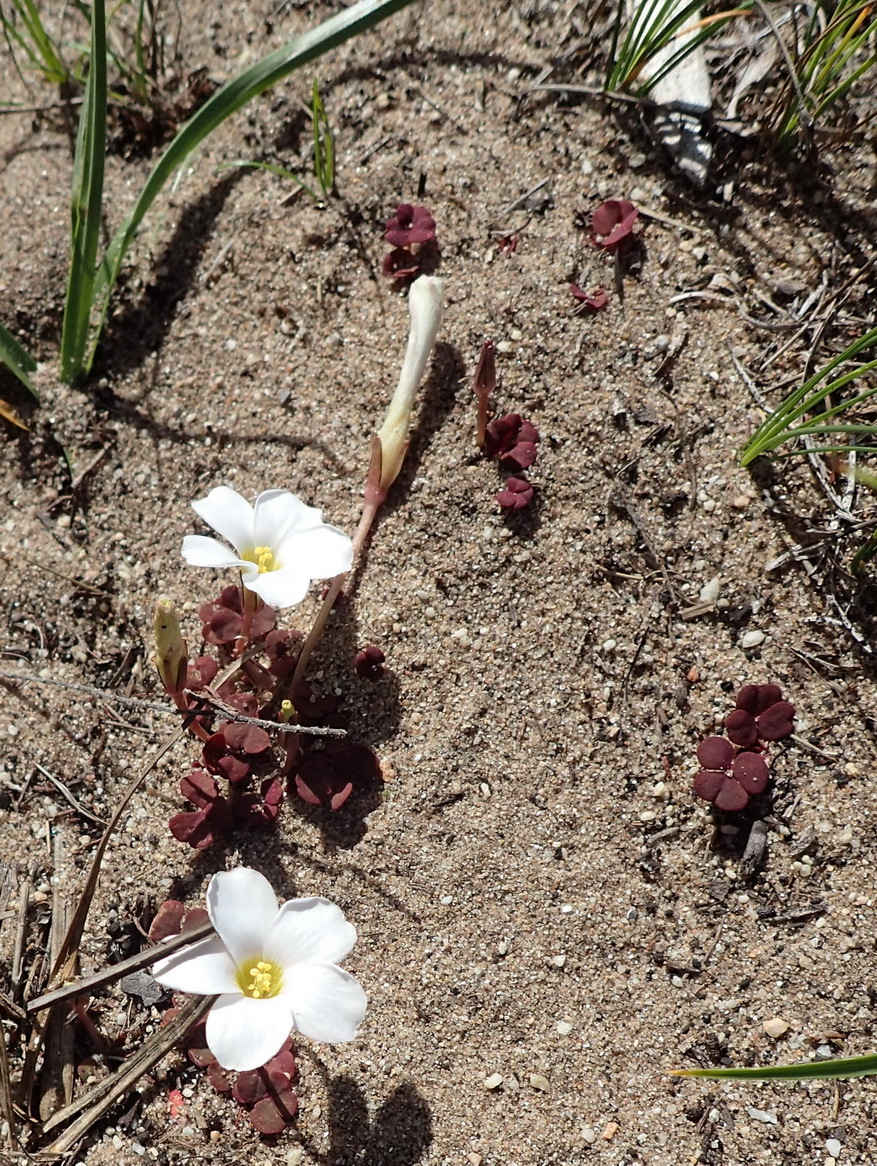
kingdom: Plantae
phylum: Tracheophyta
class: Magnoliopsida
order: Oxalidales
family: Oxalidaceae
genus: Oxalis
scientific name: Oxalis depressa
